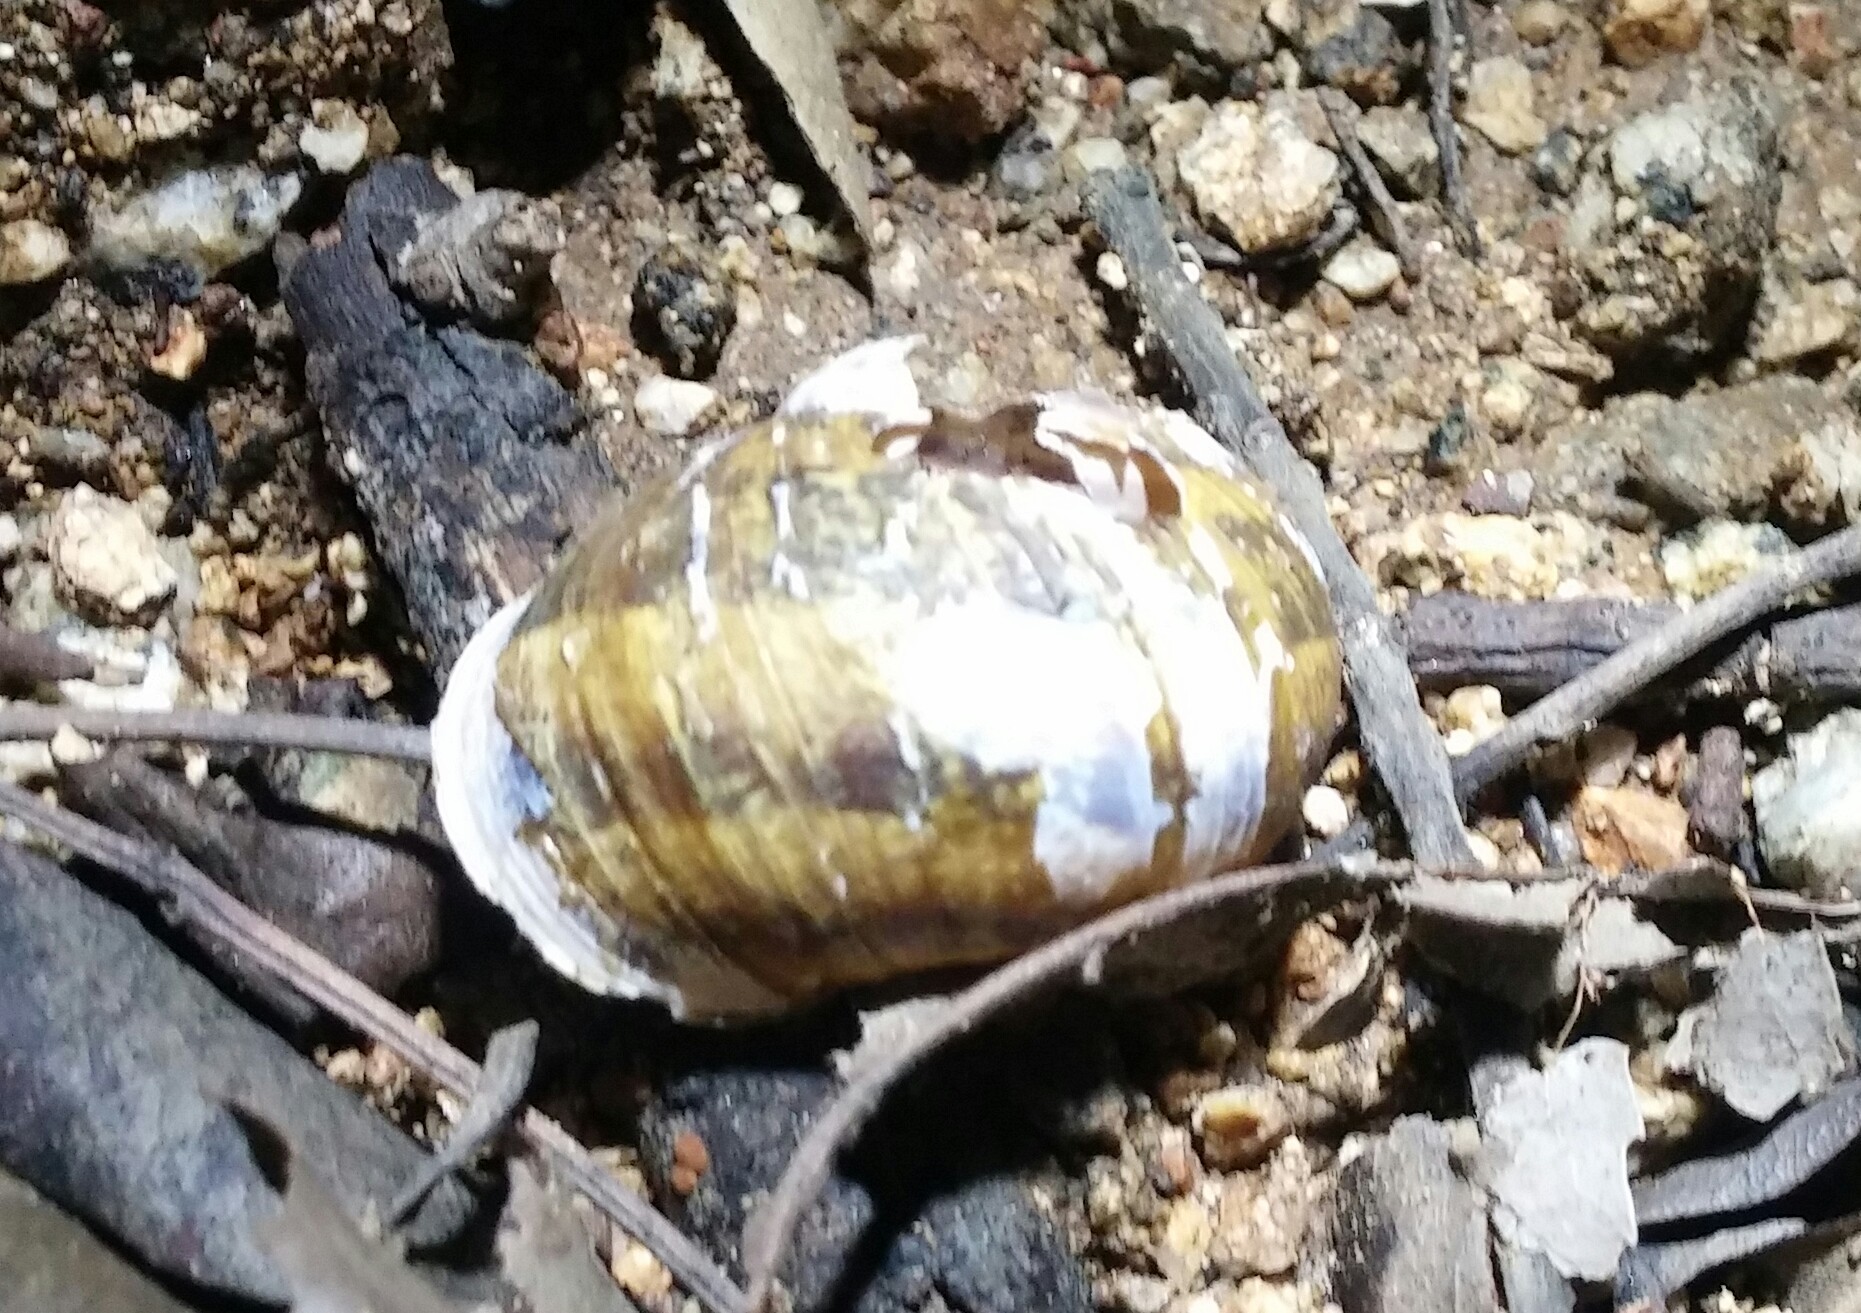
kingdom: Animalia
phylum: Mollusca
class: Gastropoda
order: Stylommatophora
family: Helicidae
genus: Cornu
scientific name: Cornu aspersum
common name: Brown garden snail
